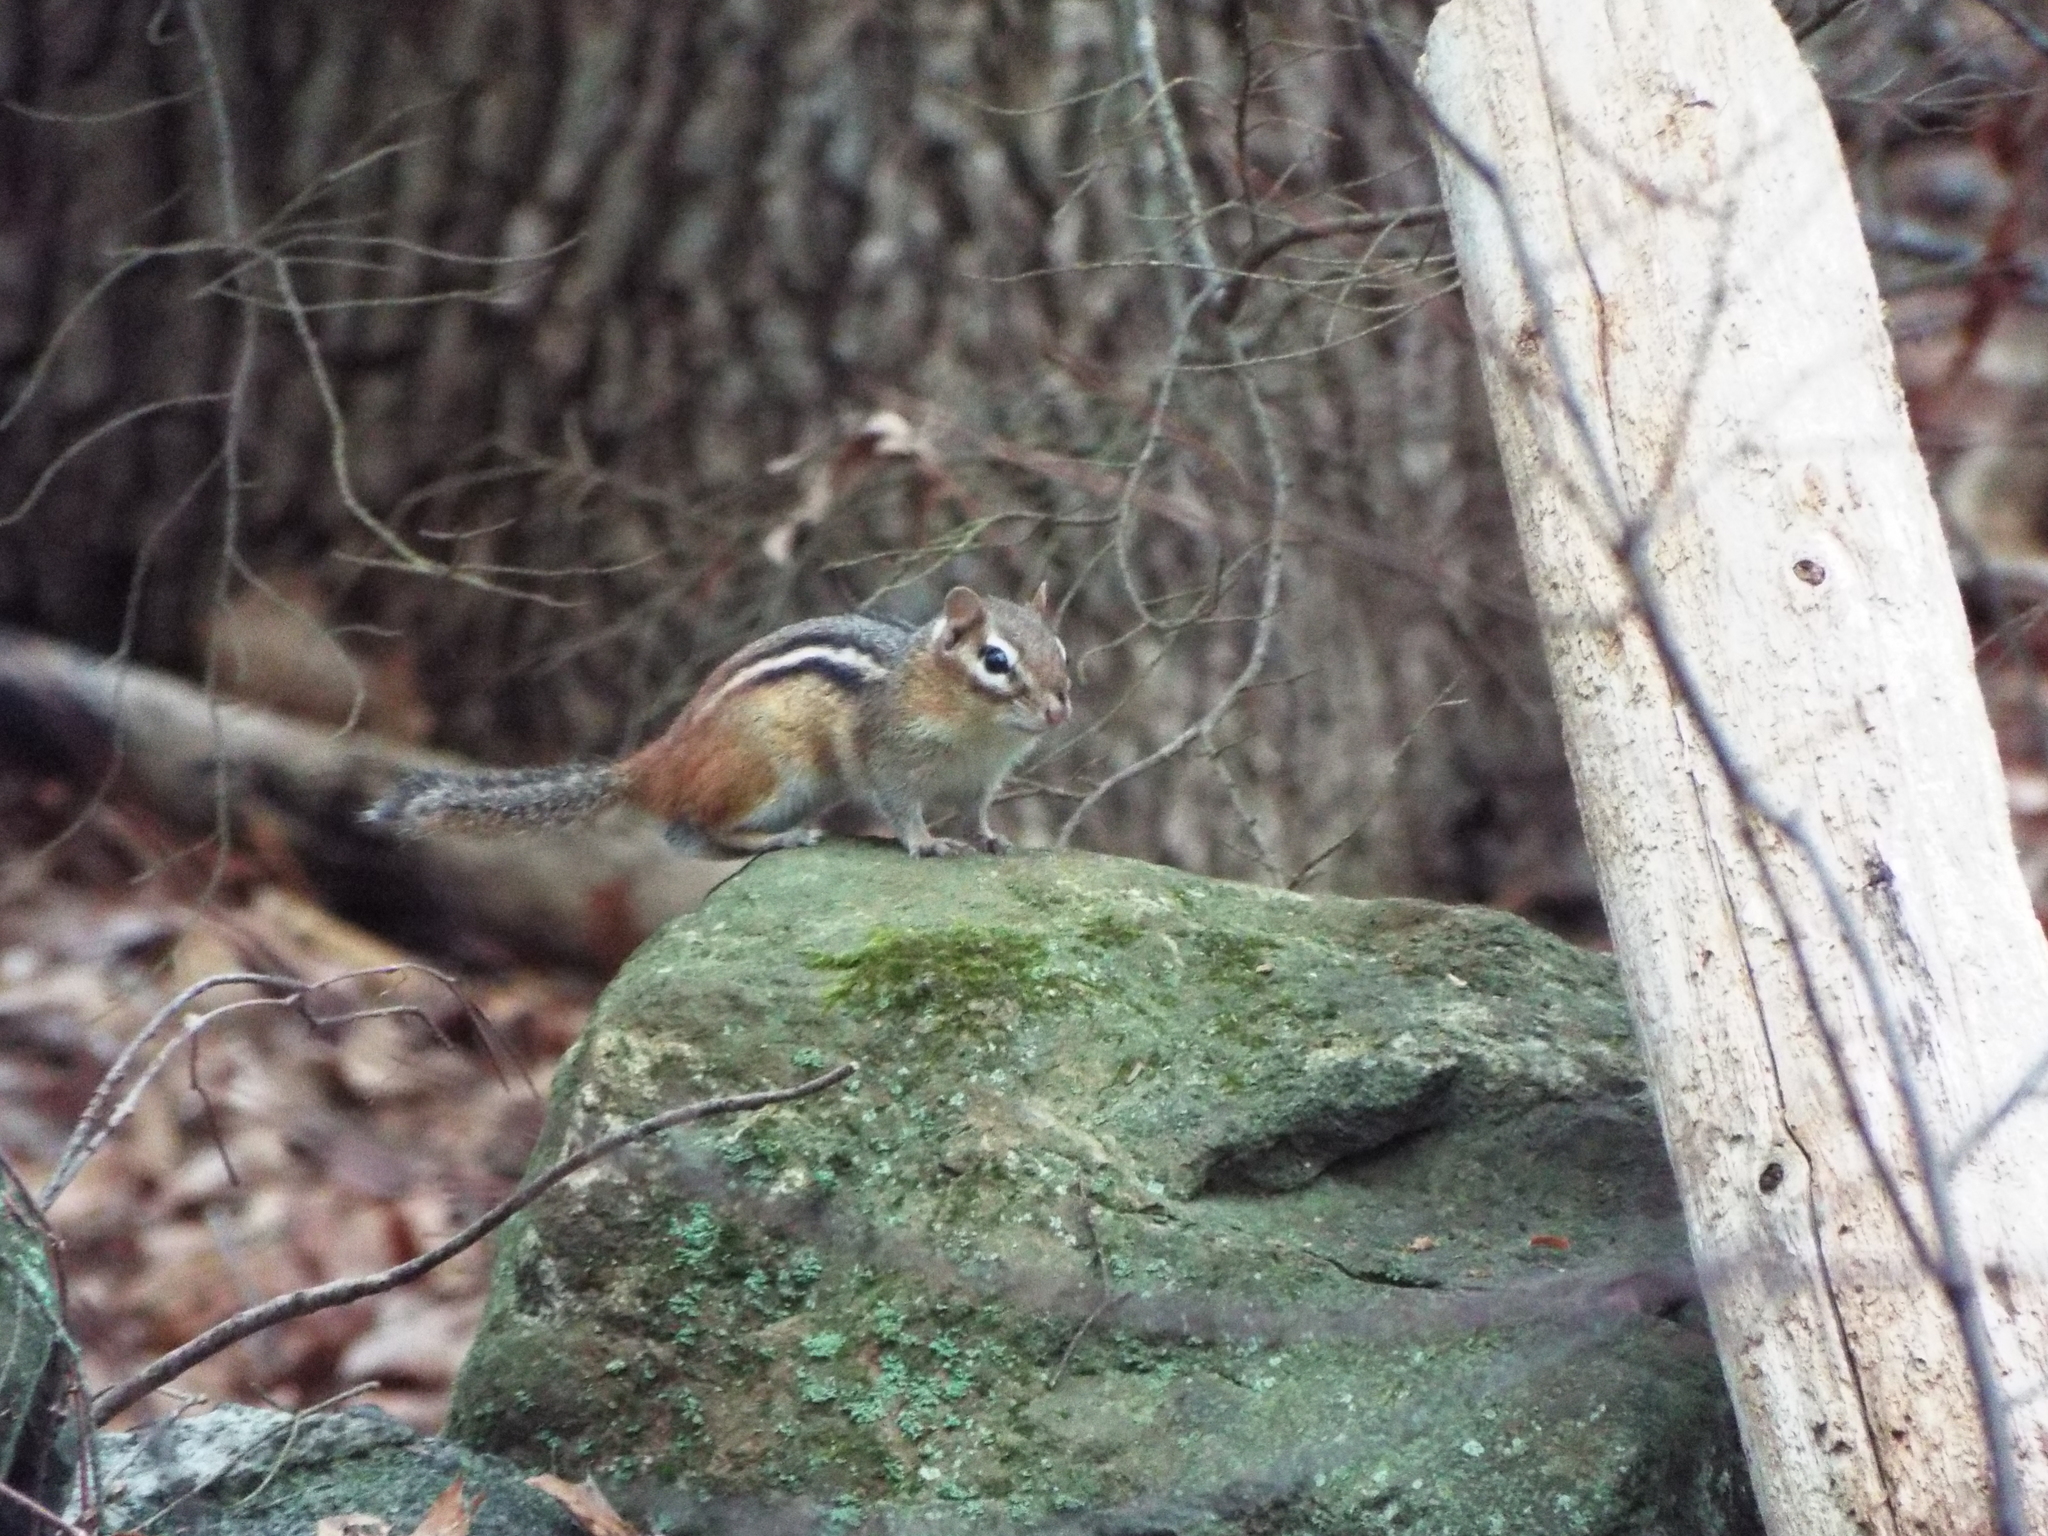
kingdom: Animalia
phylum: Chordata
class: Mammalia
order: Rodentia
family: Sciuridae
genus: Tamias
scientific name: Tamias striatus
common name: Eastern chipmunk
